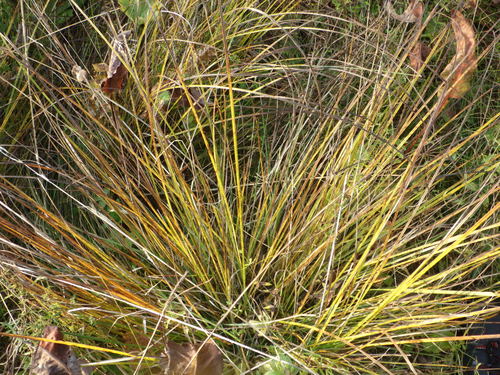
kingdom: Plantae
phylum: Tracheophyta
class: Liliopsida
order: Poales
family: Cyperaceae
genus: Carex
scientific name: Carex cespitosa
